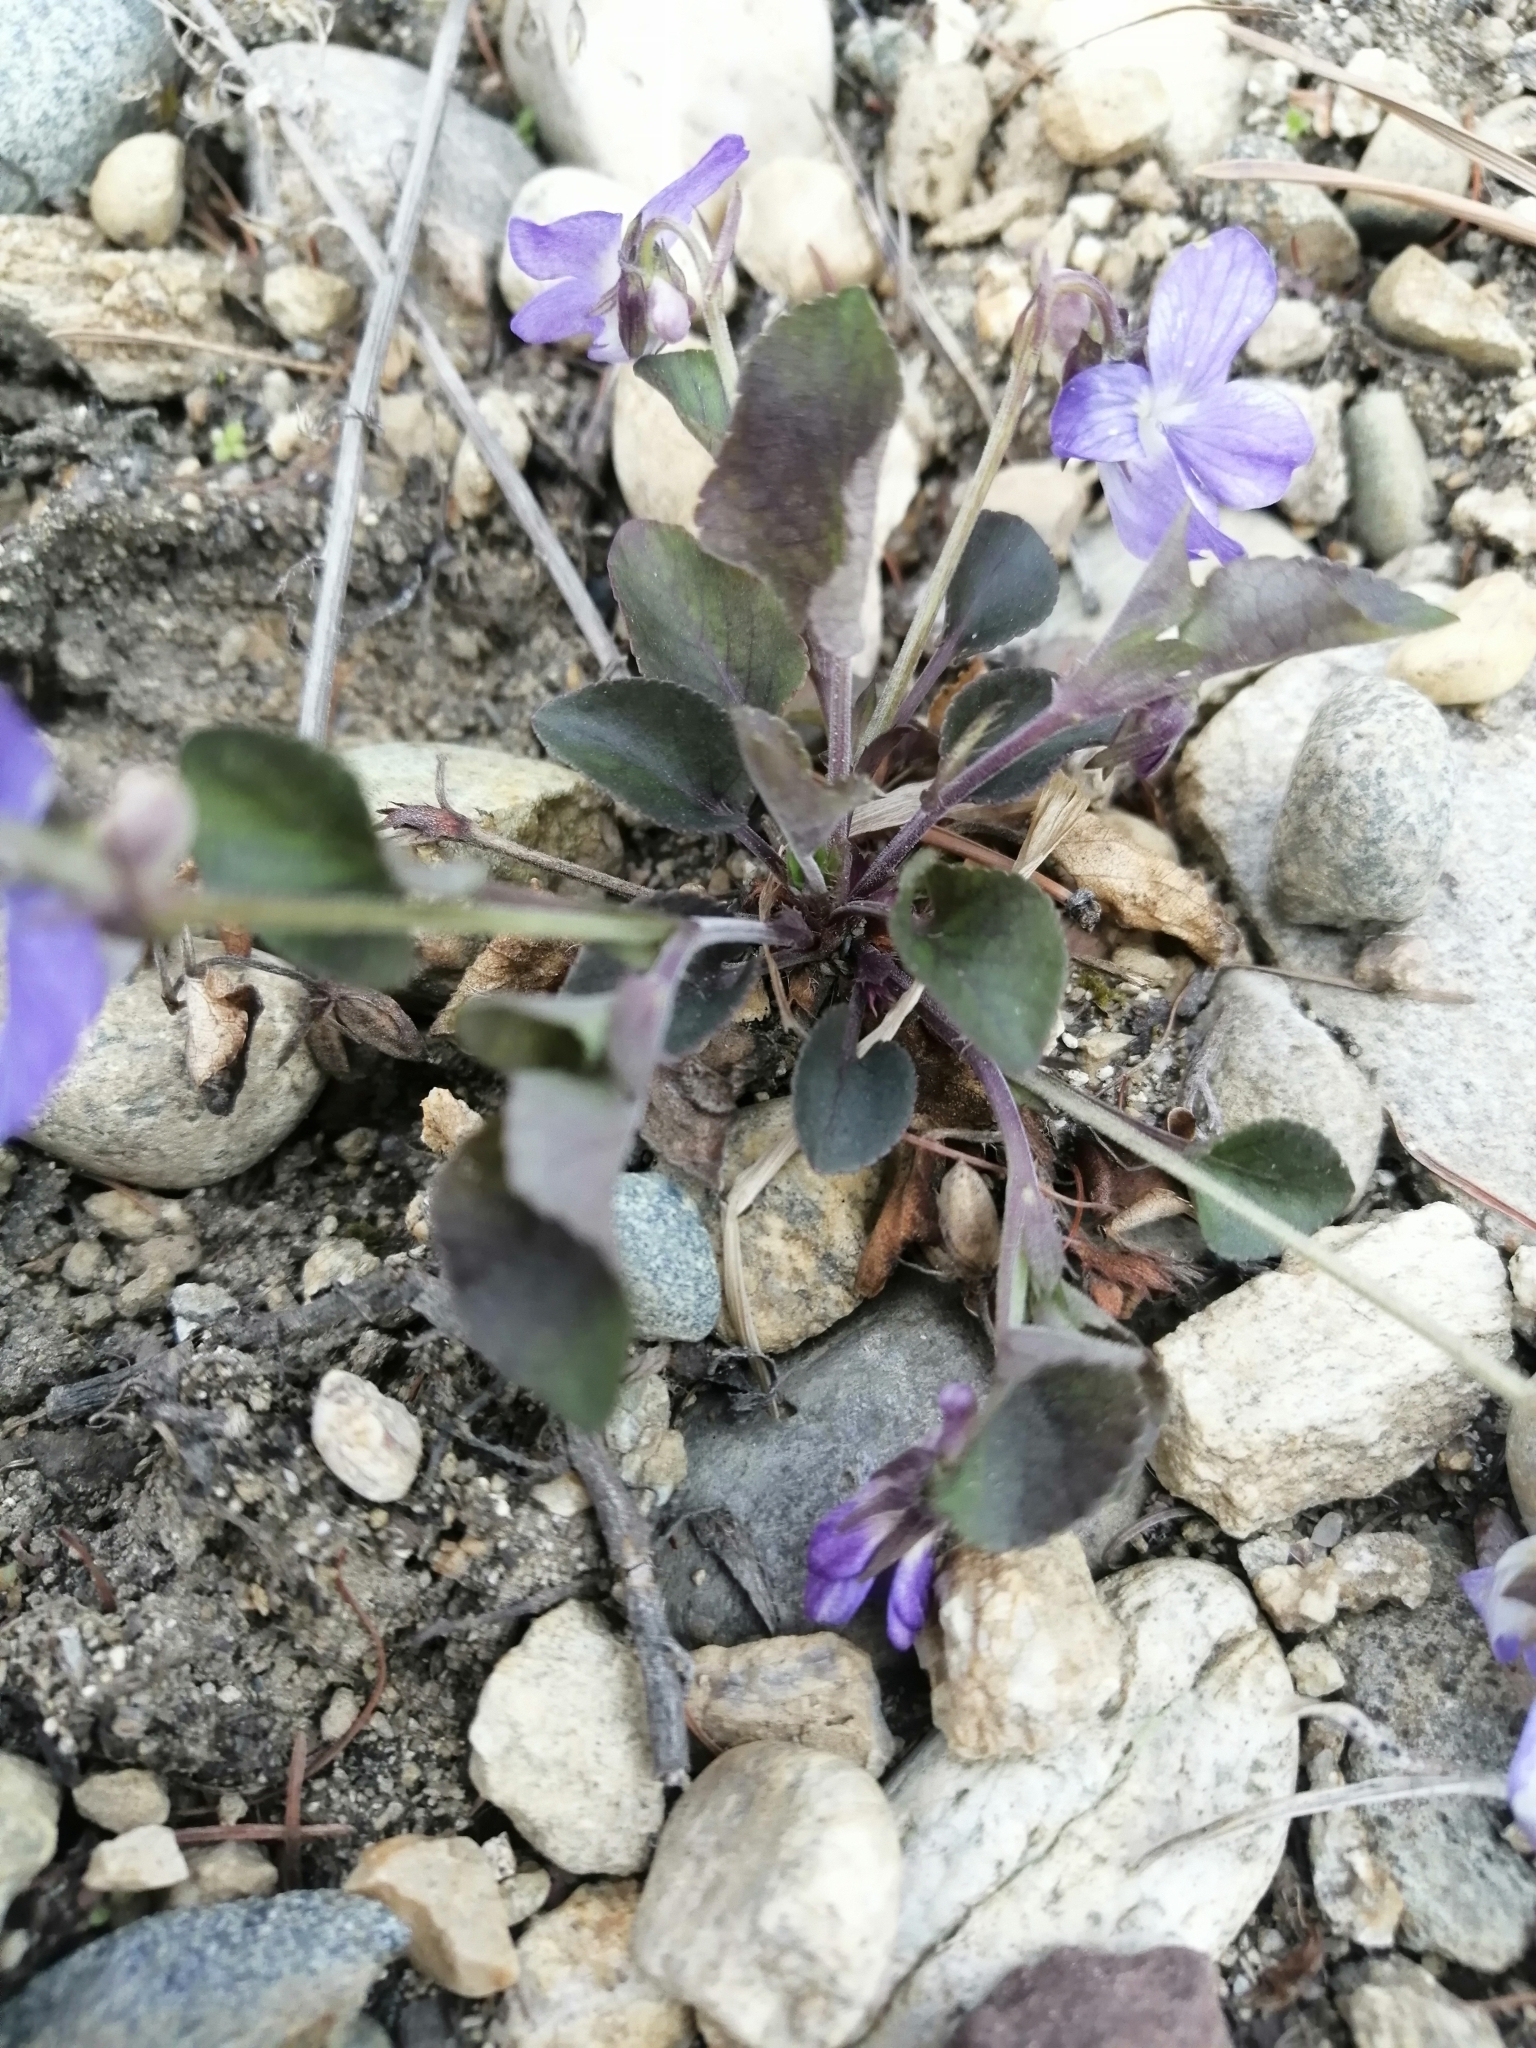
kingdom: Plantae
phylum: Tracheophyta
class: Magnoliopsida
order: Malpighiales
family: Violaceae
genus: Viola
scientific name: Viola rupestris
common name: Teesdale violet
